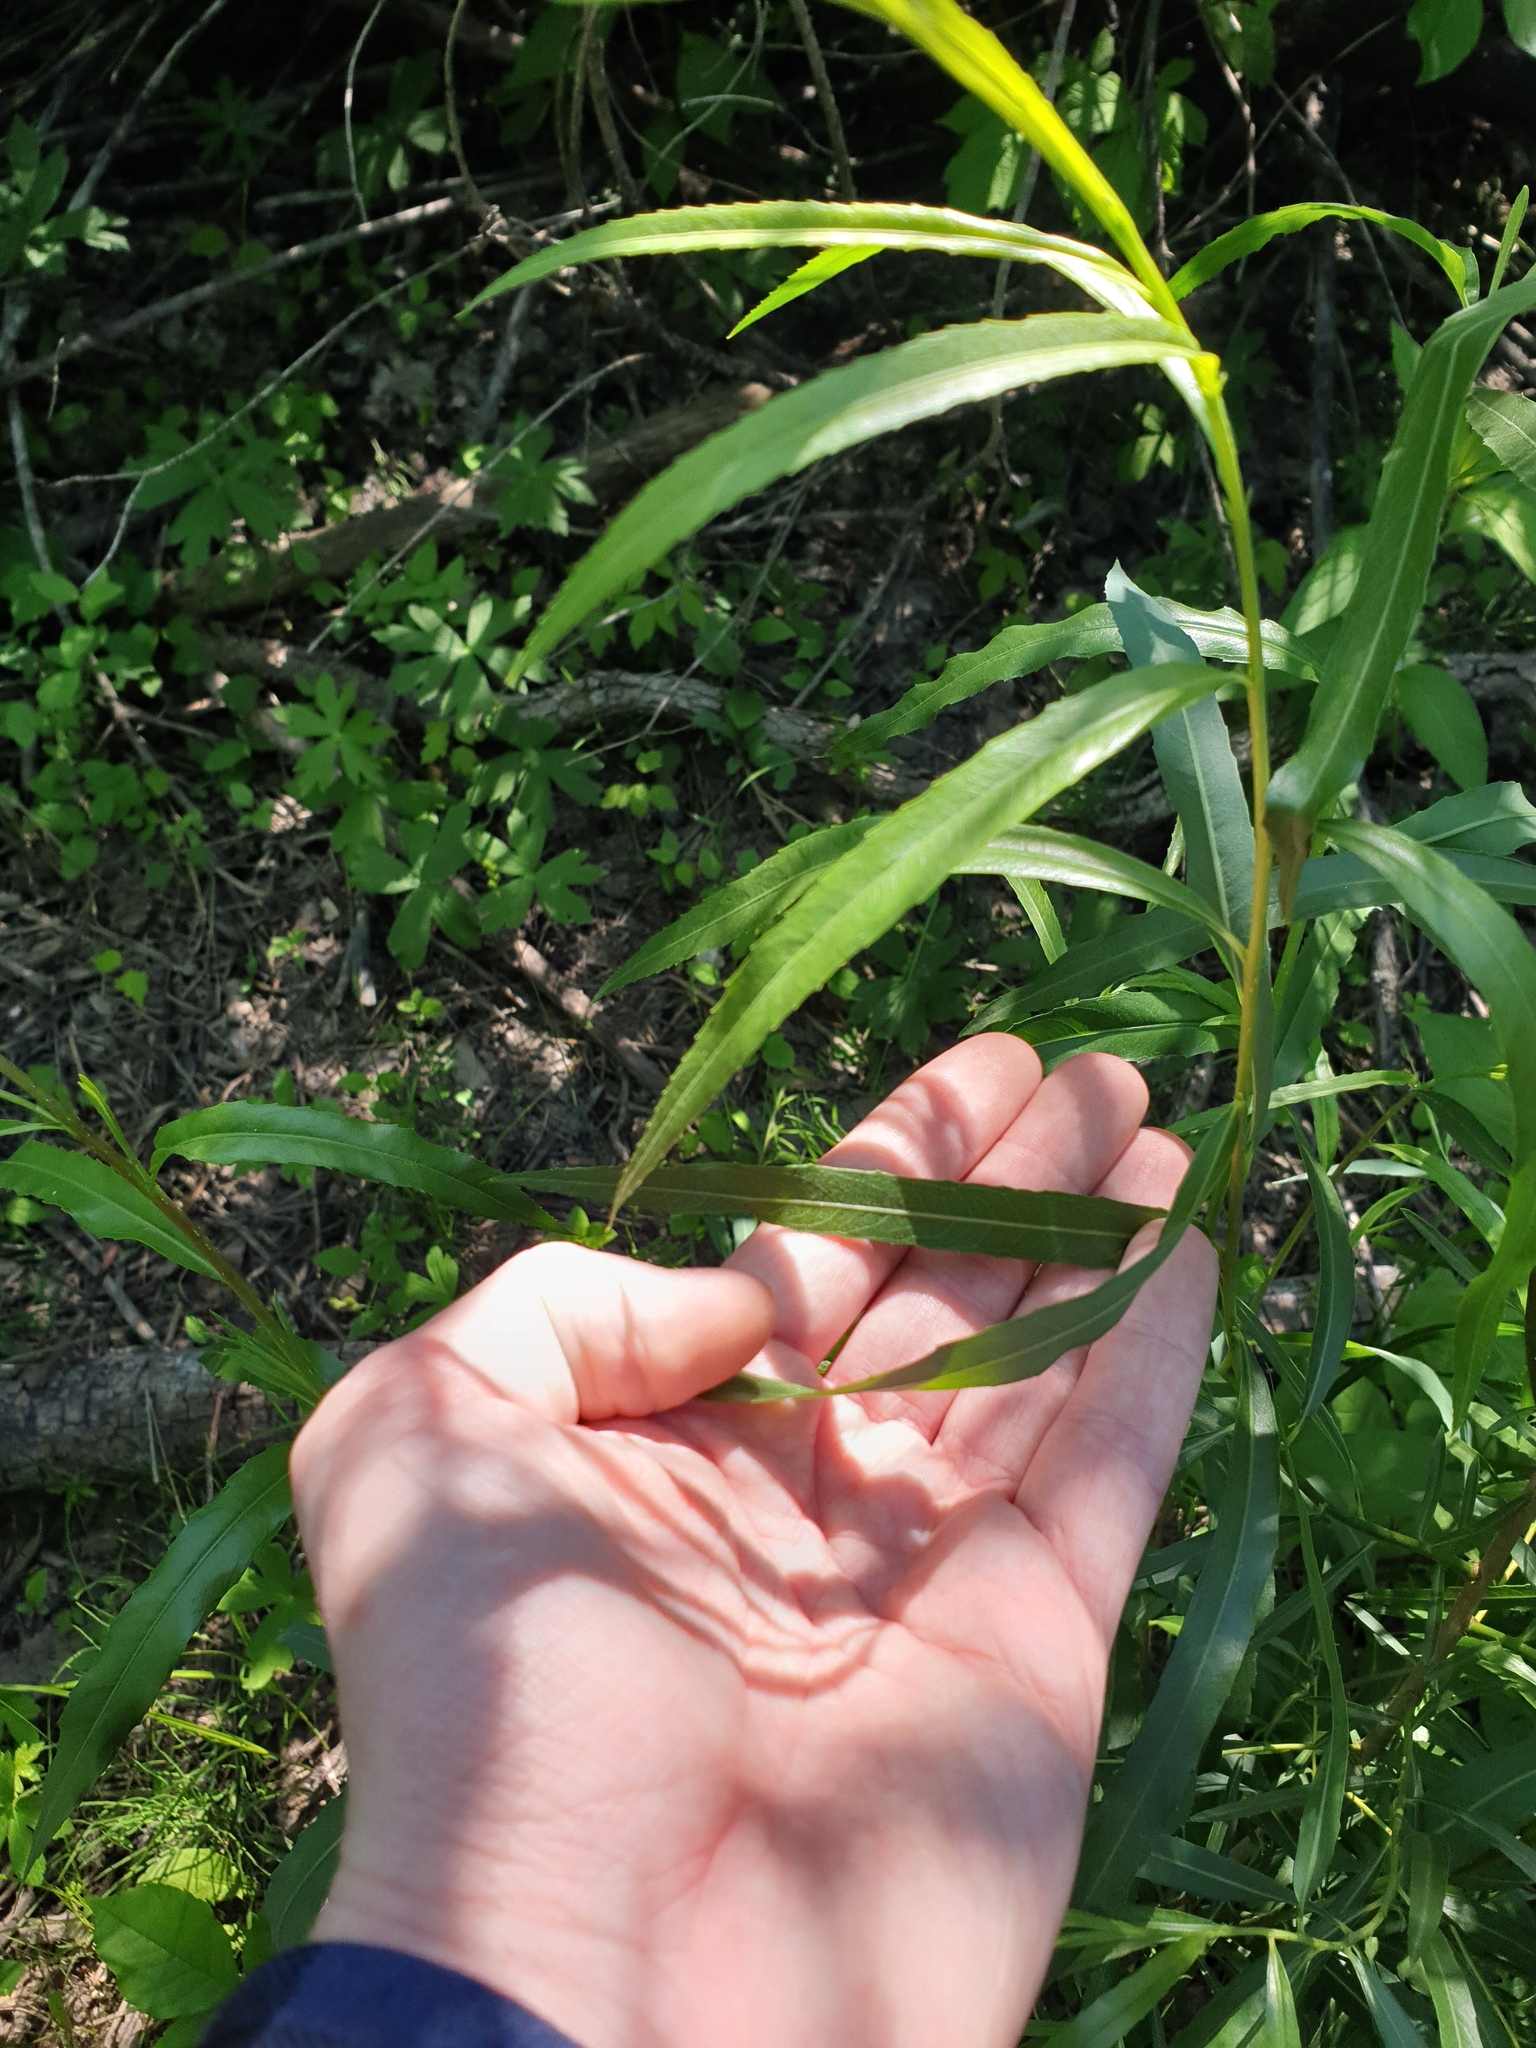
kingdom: Plantae
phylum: Tracheophyta
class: Magnoliopsida
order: Malpighiales
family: Salicaceae
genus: Salix
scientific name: Salix interior
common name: Sandbar willow
